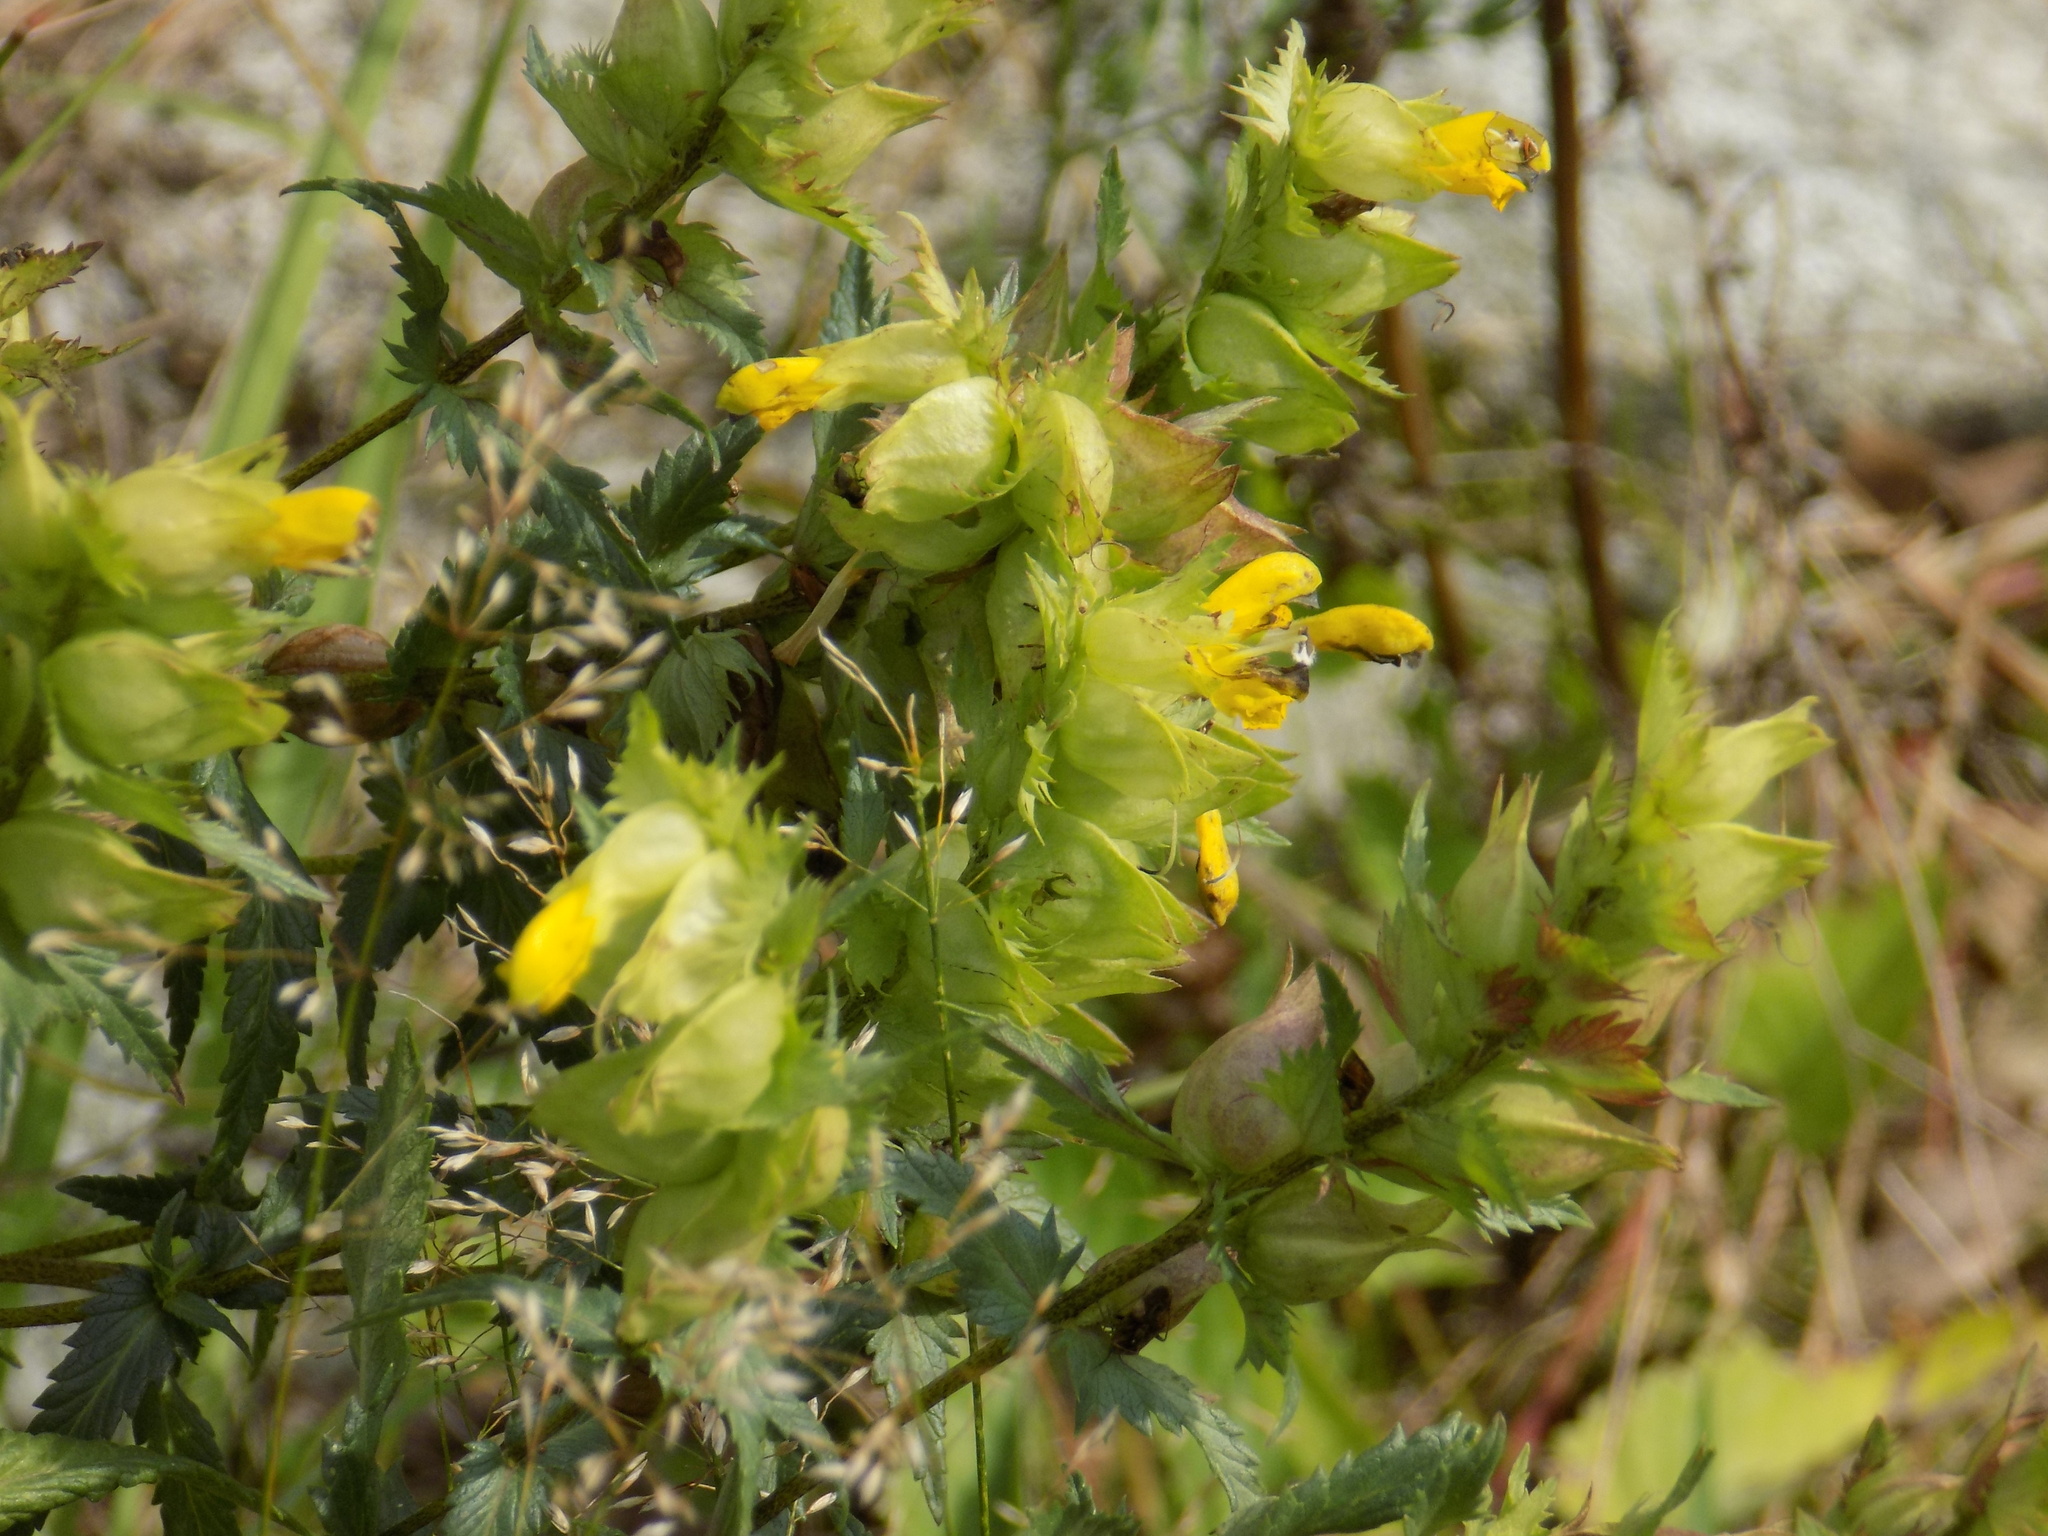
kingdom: Plantae
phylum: Tracheophyta
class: Magnoliopsida
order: Lamiales
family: Orobanchaceae
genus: Rhinanthus
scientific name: Rhinanthus serotinus
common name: Late-flowering yellow rattle
